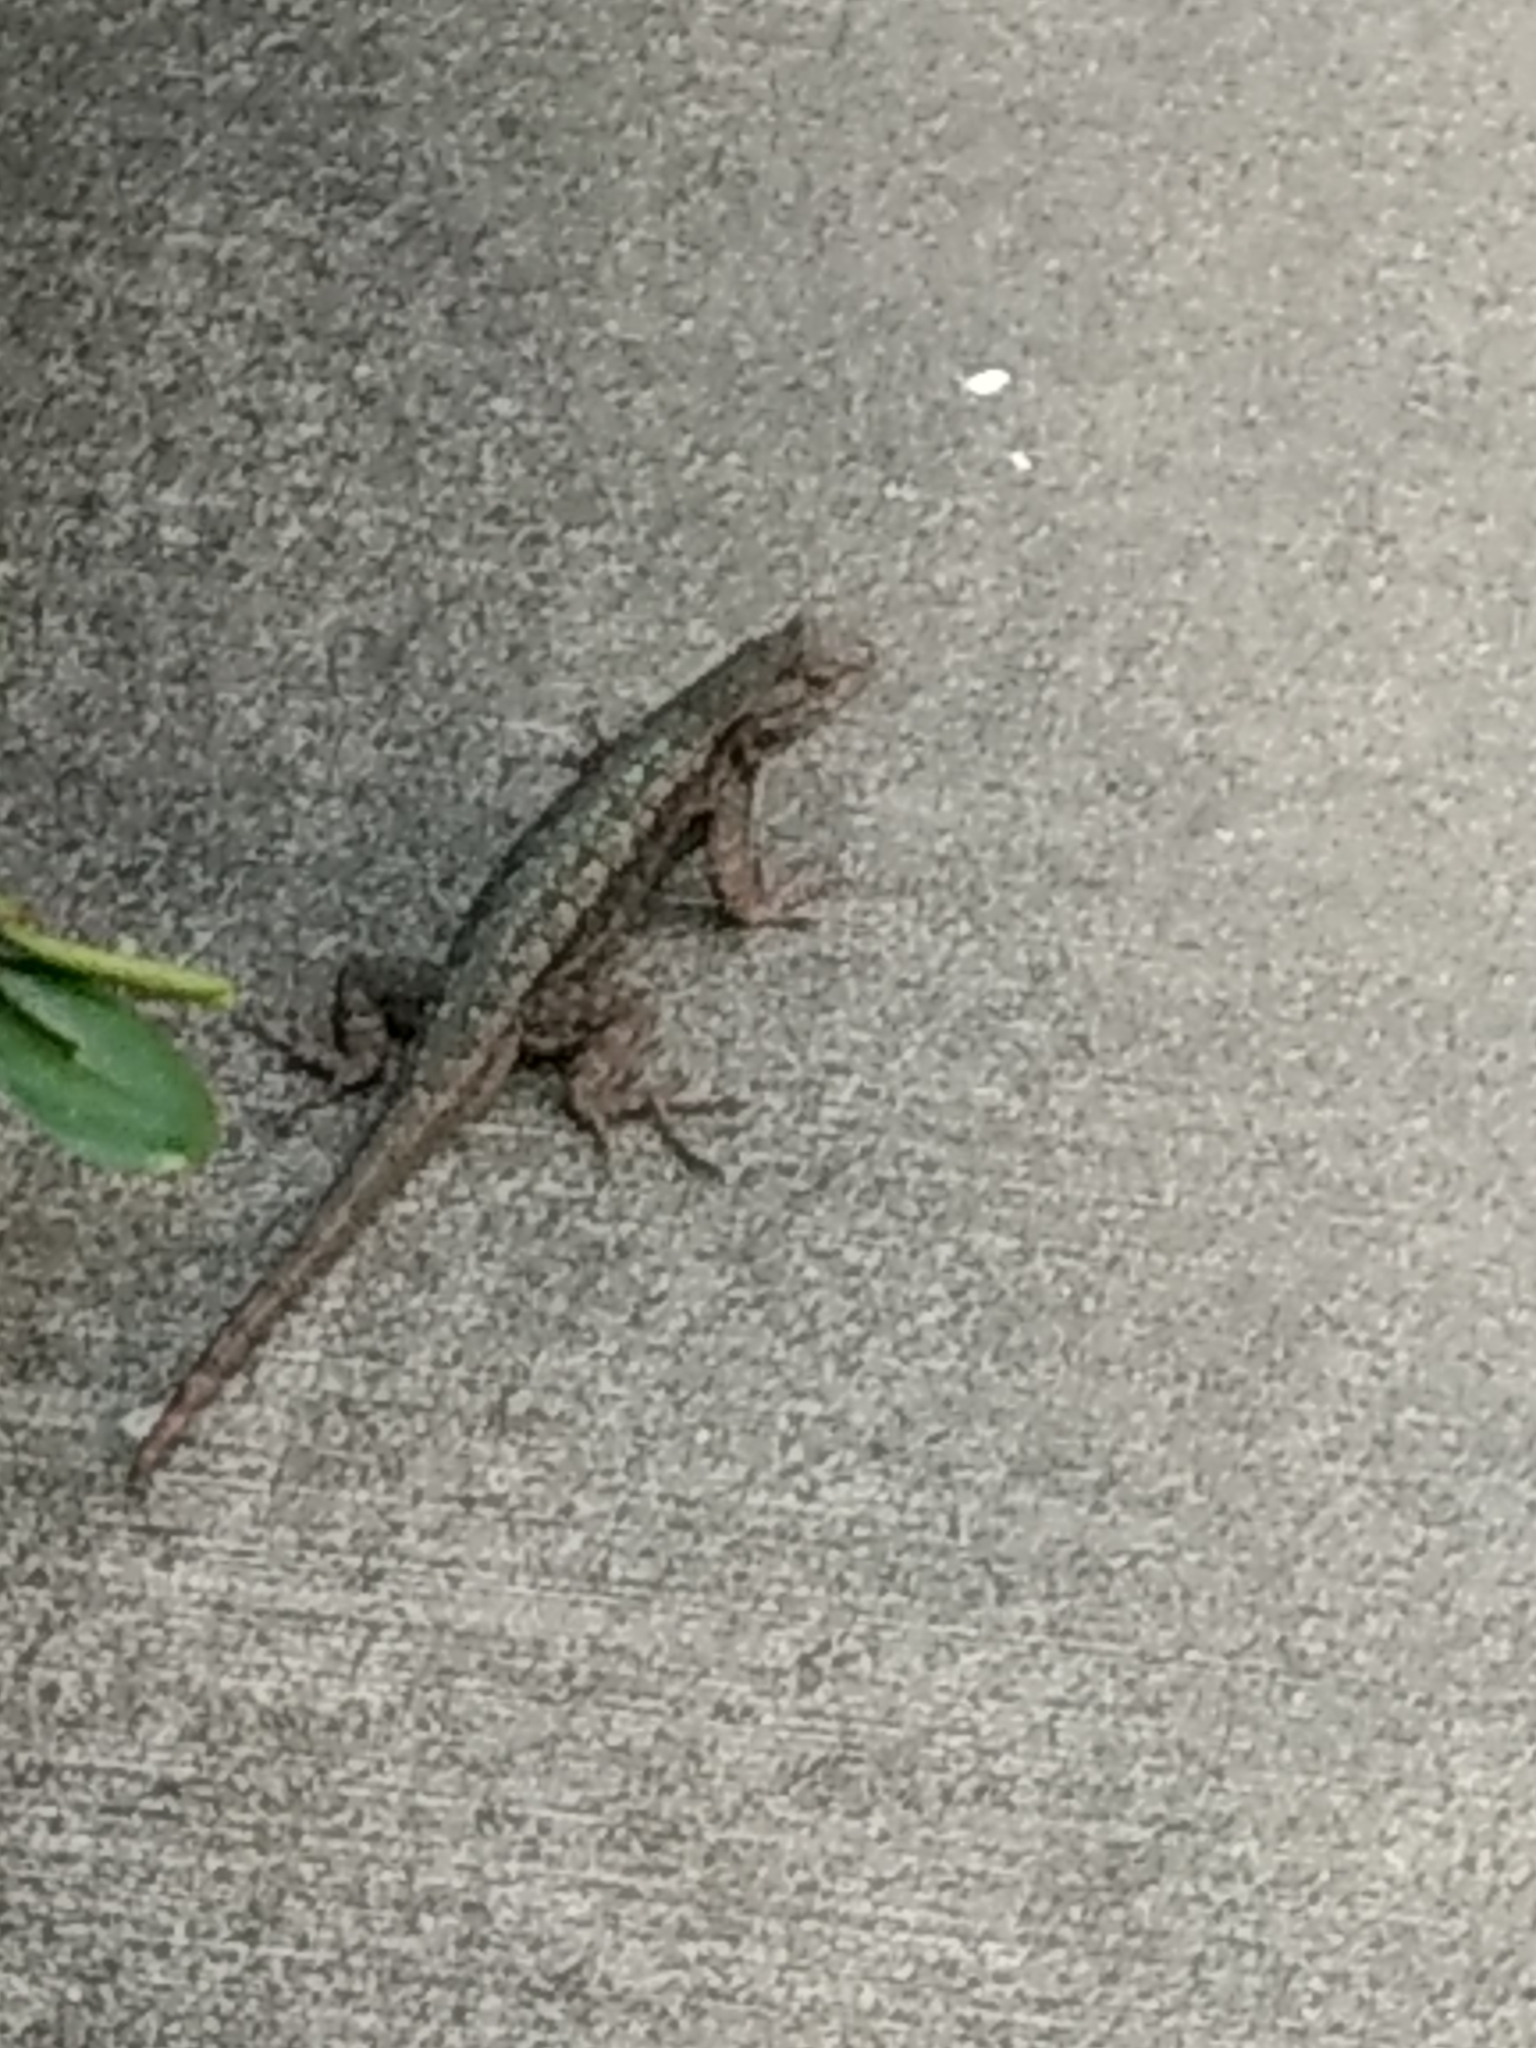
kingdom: Animalia
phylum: Chordata
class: Squamata
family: Phrynosomatidae
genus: Sceloporus
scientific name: Sceloporus occidentalis
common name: Western fence lizard
